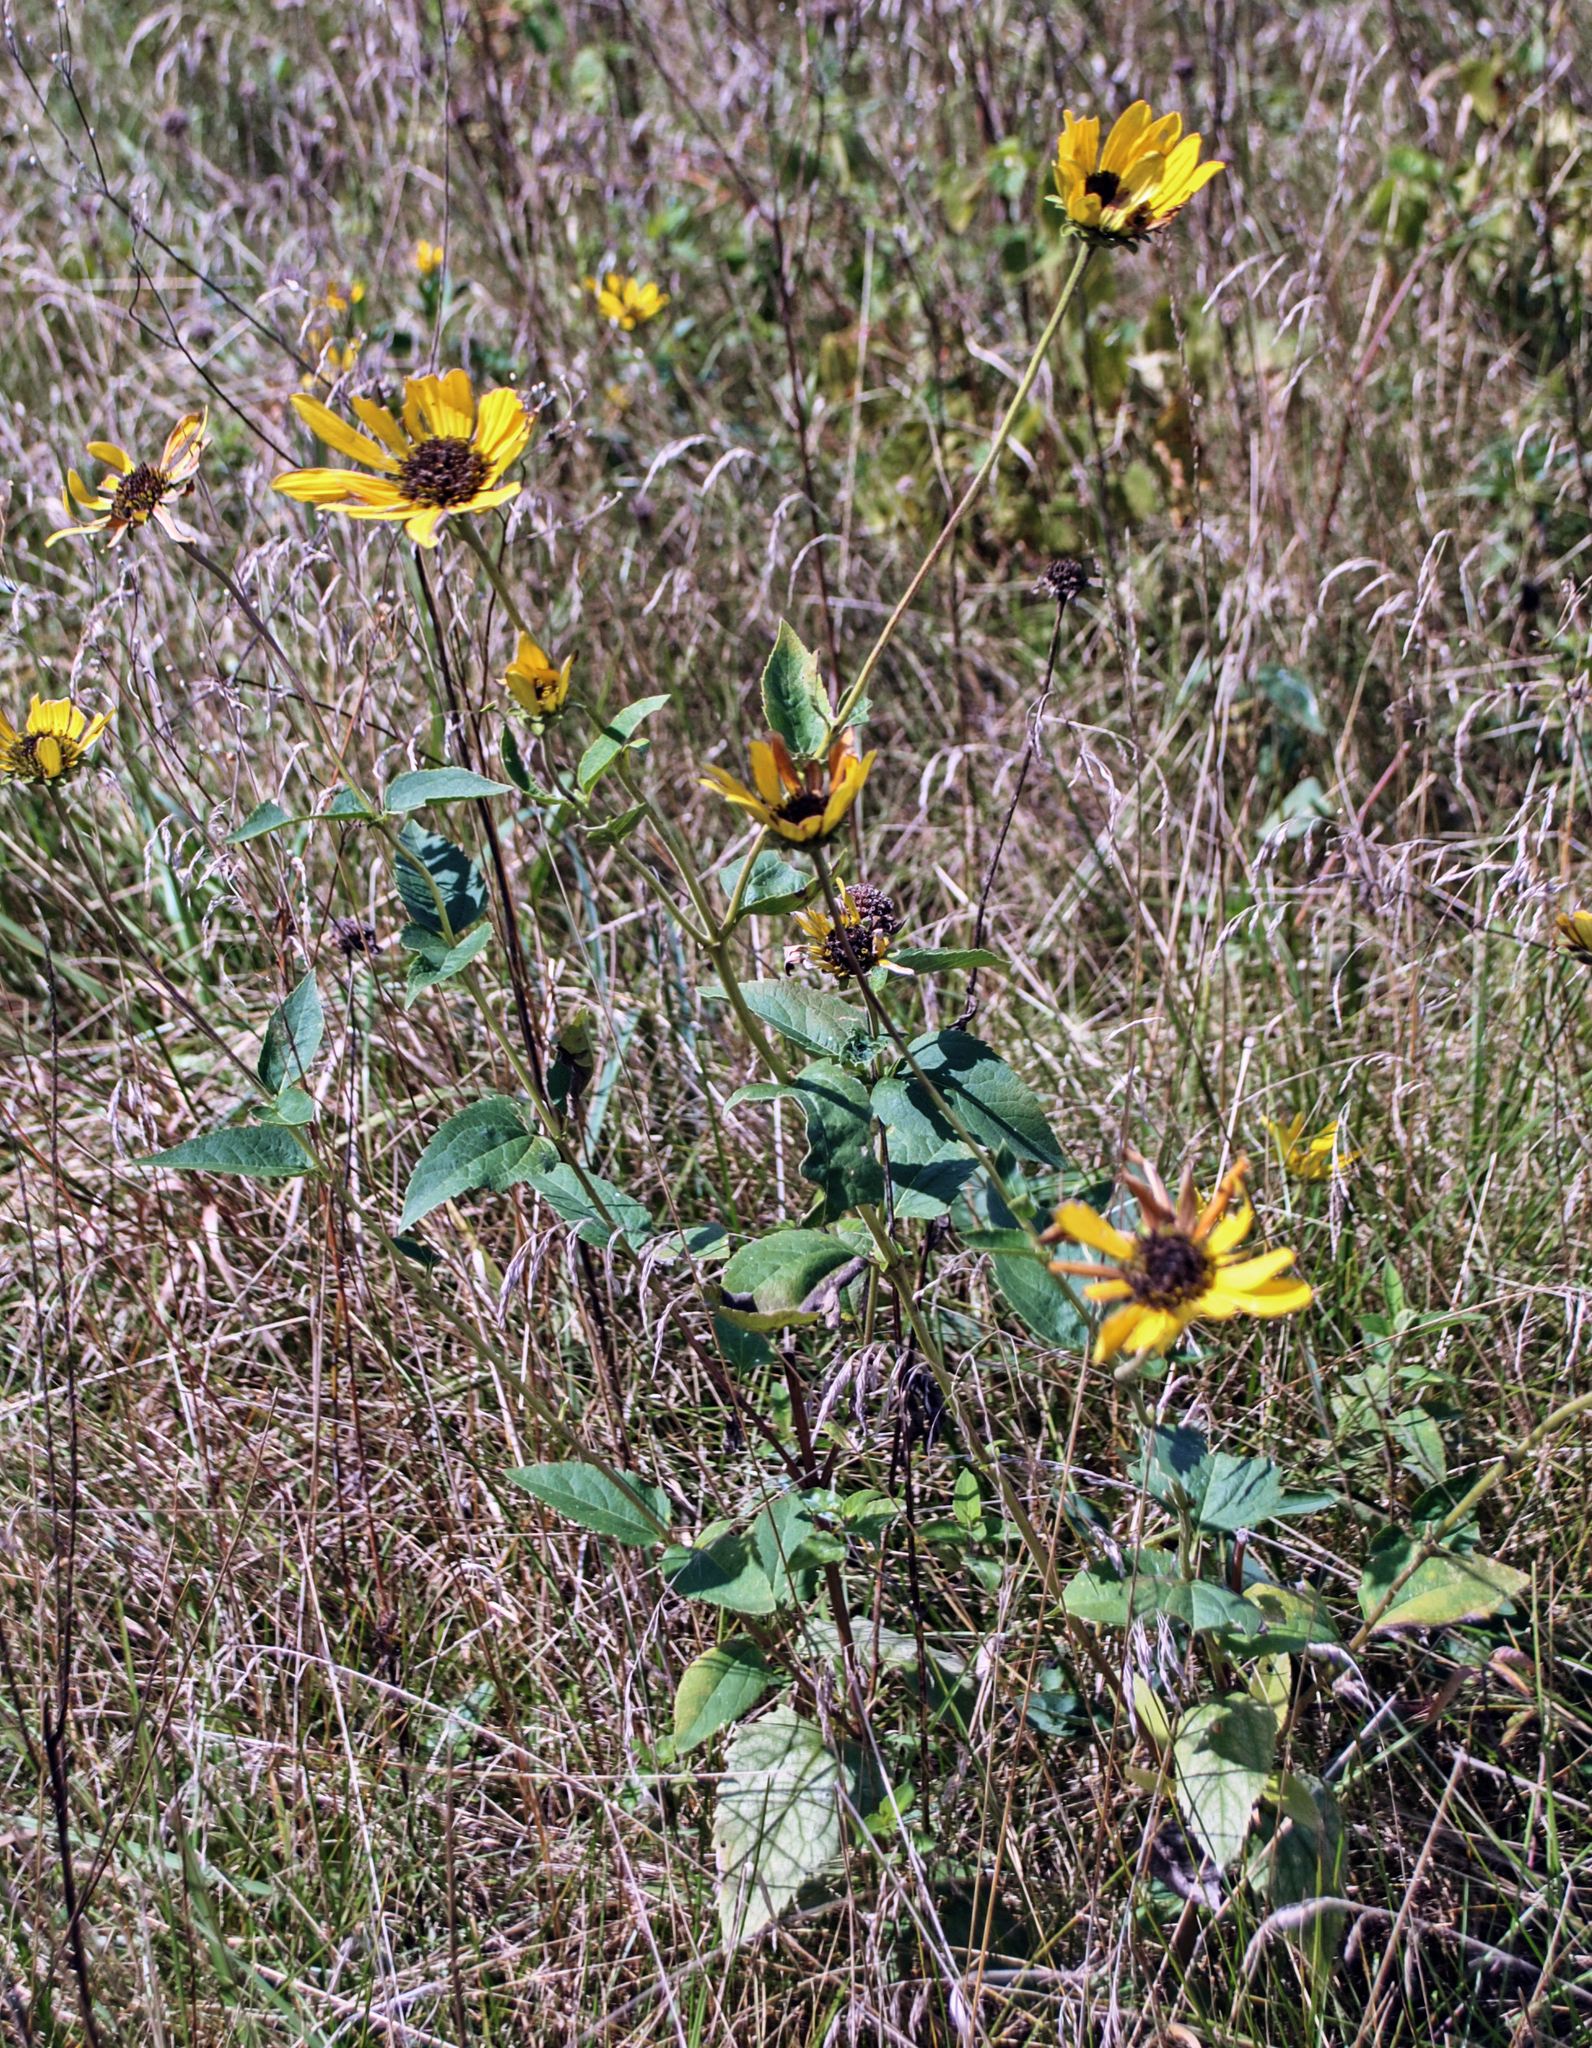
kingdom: Plantae
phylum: Tracheophyta
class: Magnoliopsida
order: Asterales
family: Asteraceae
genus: Heliopsis
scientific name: Heliopsis helianthoides
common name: False sunflower
